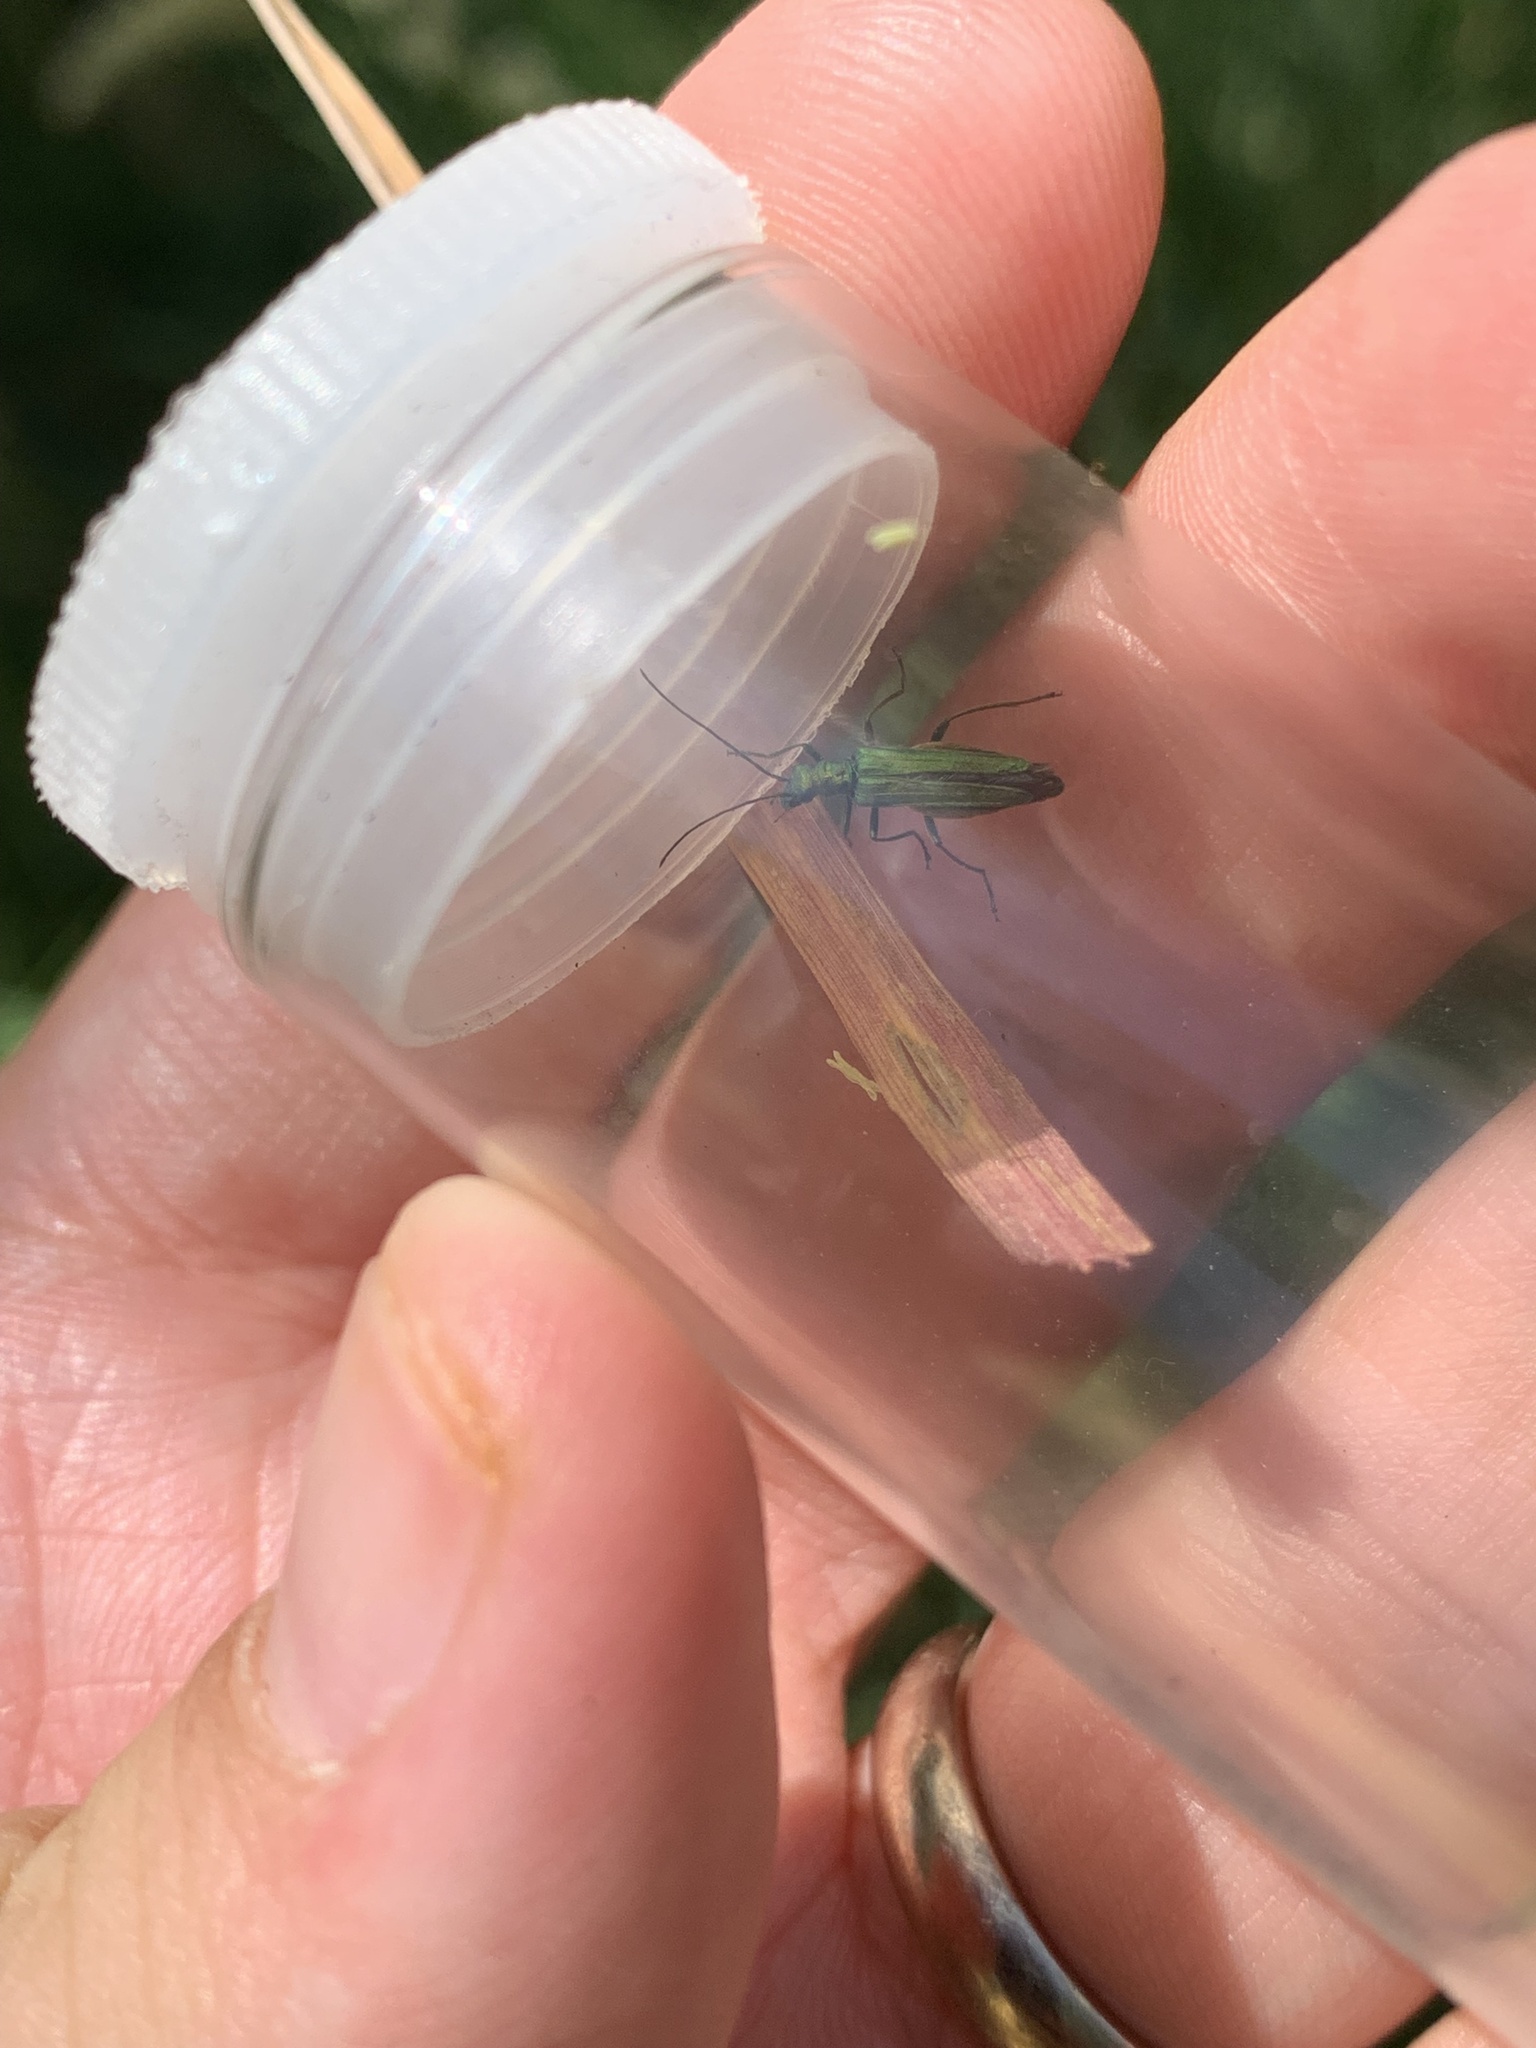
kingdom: Animalia
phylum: Arthropoda
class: Insecta
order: Coleoptera
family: Oedemeridae
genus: Oedemera
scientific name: Oedemera nobilis
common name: Swollen-thighed beetle
